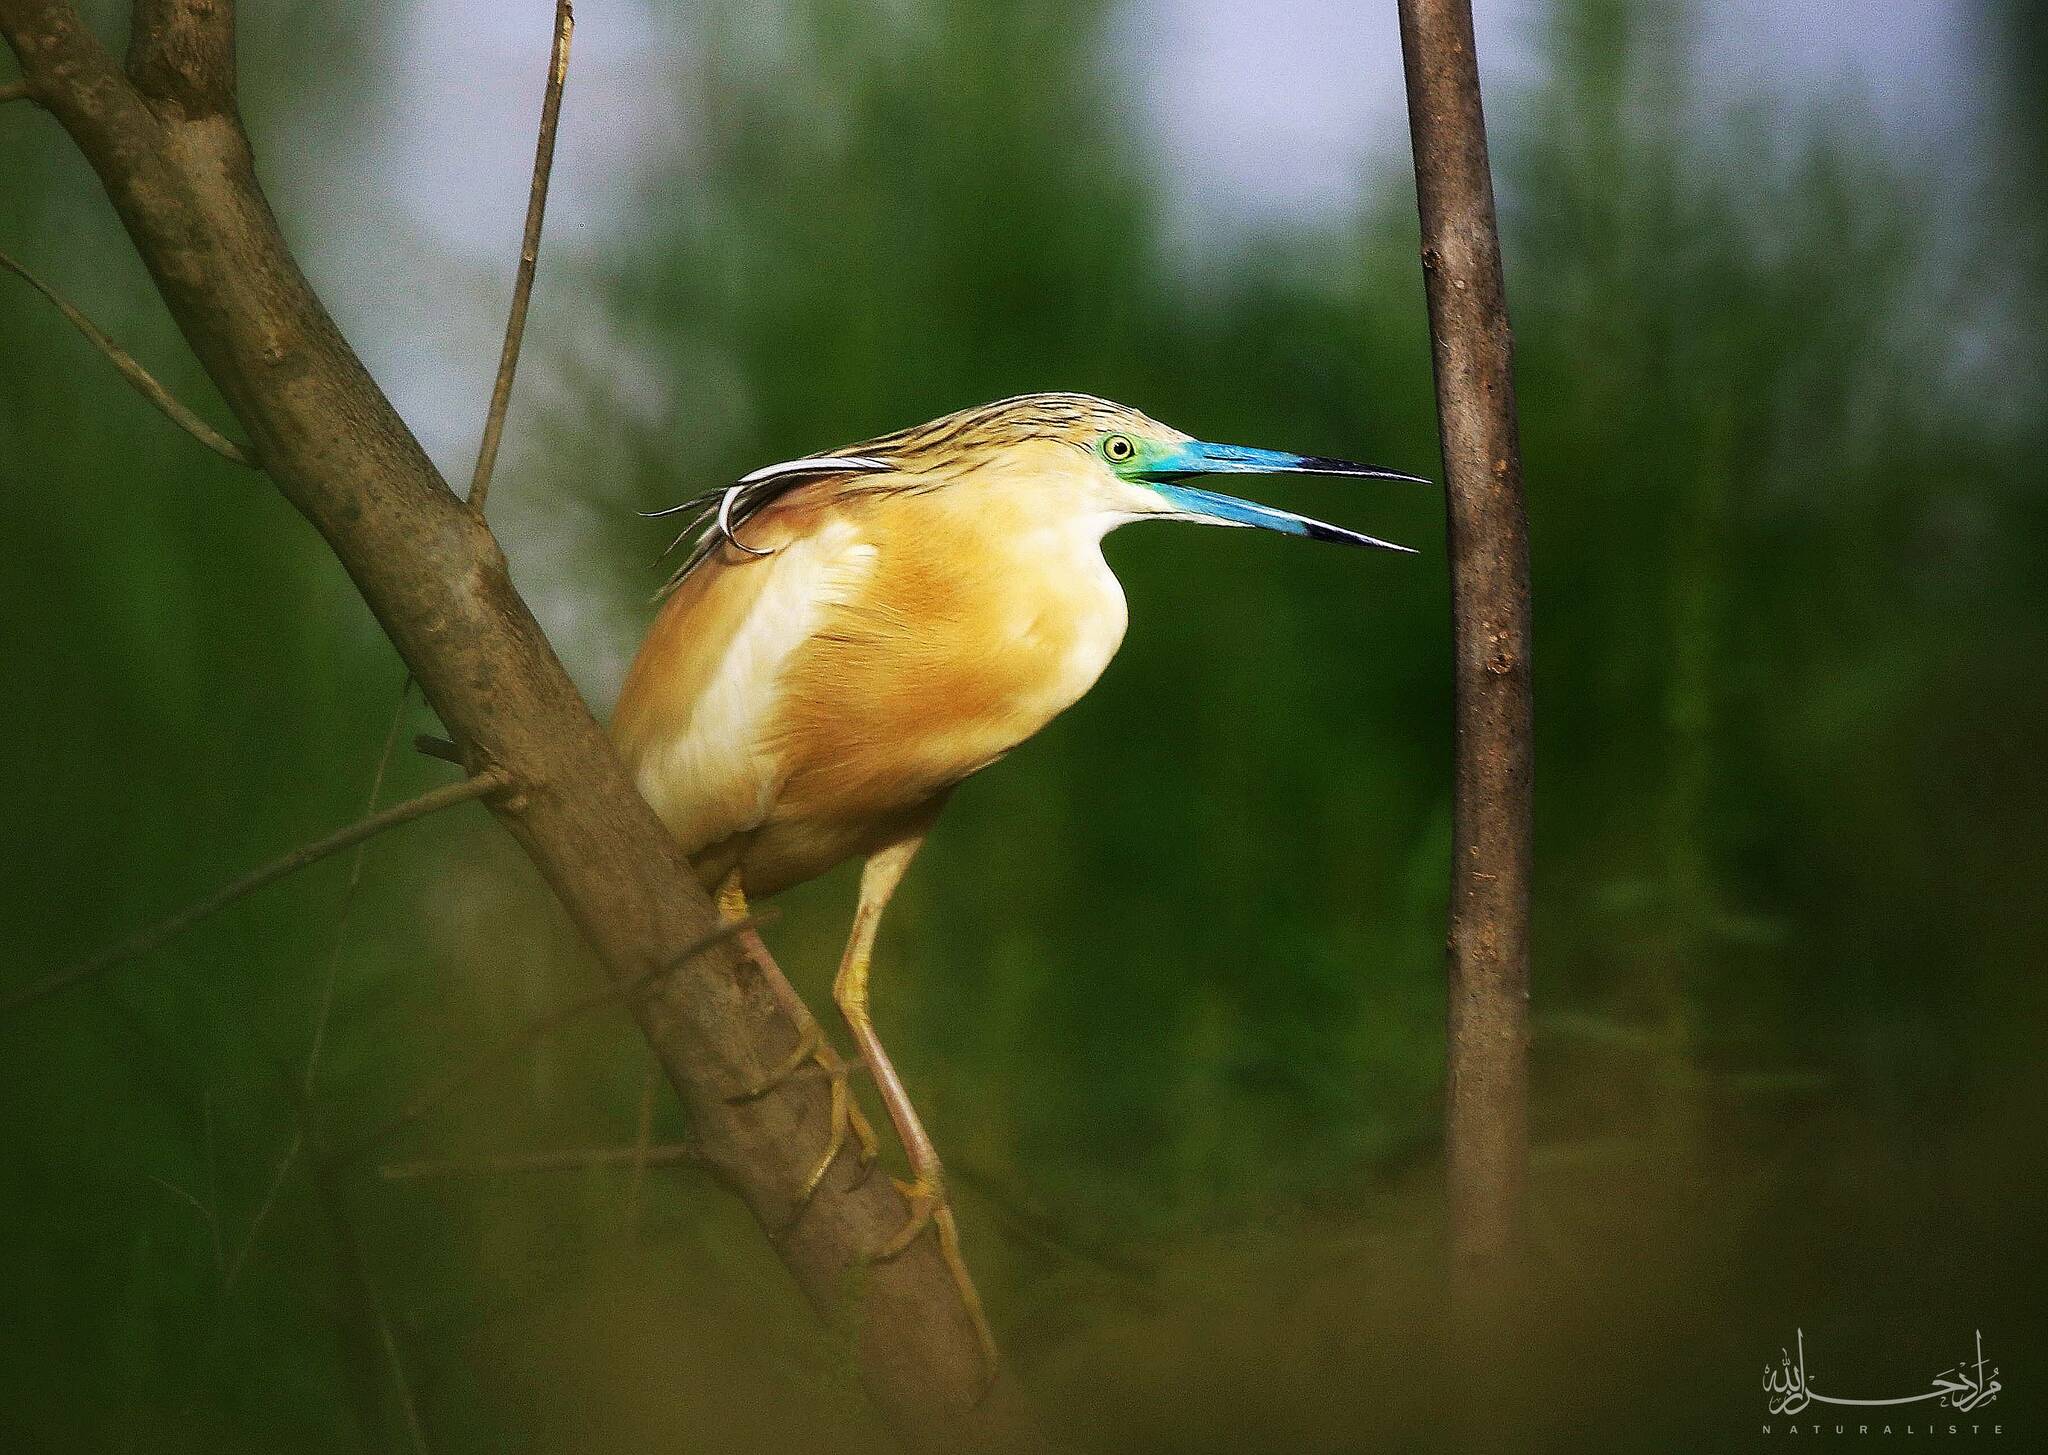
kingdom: Animalia
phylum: Chordata
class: Aves
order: Pelecaniformes
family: Ardeidae
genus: Ardeola
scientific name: Ardeola ralloides
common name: Squacco heron
